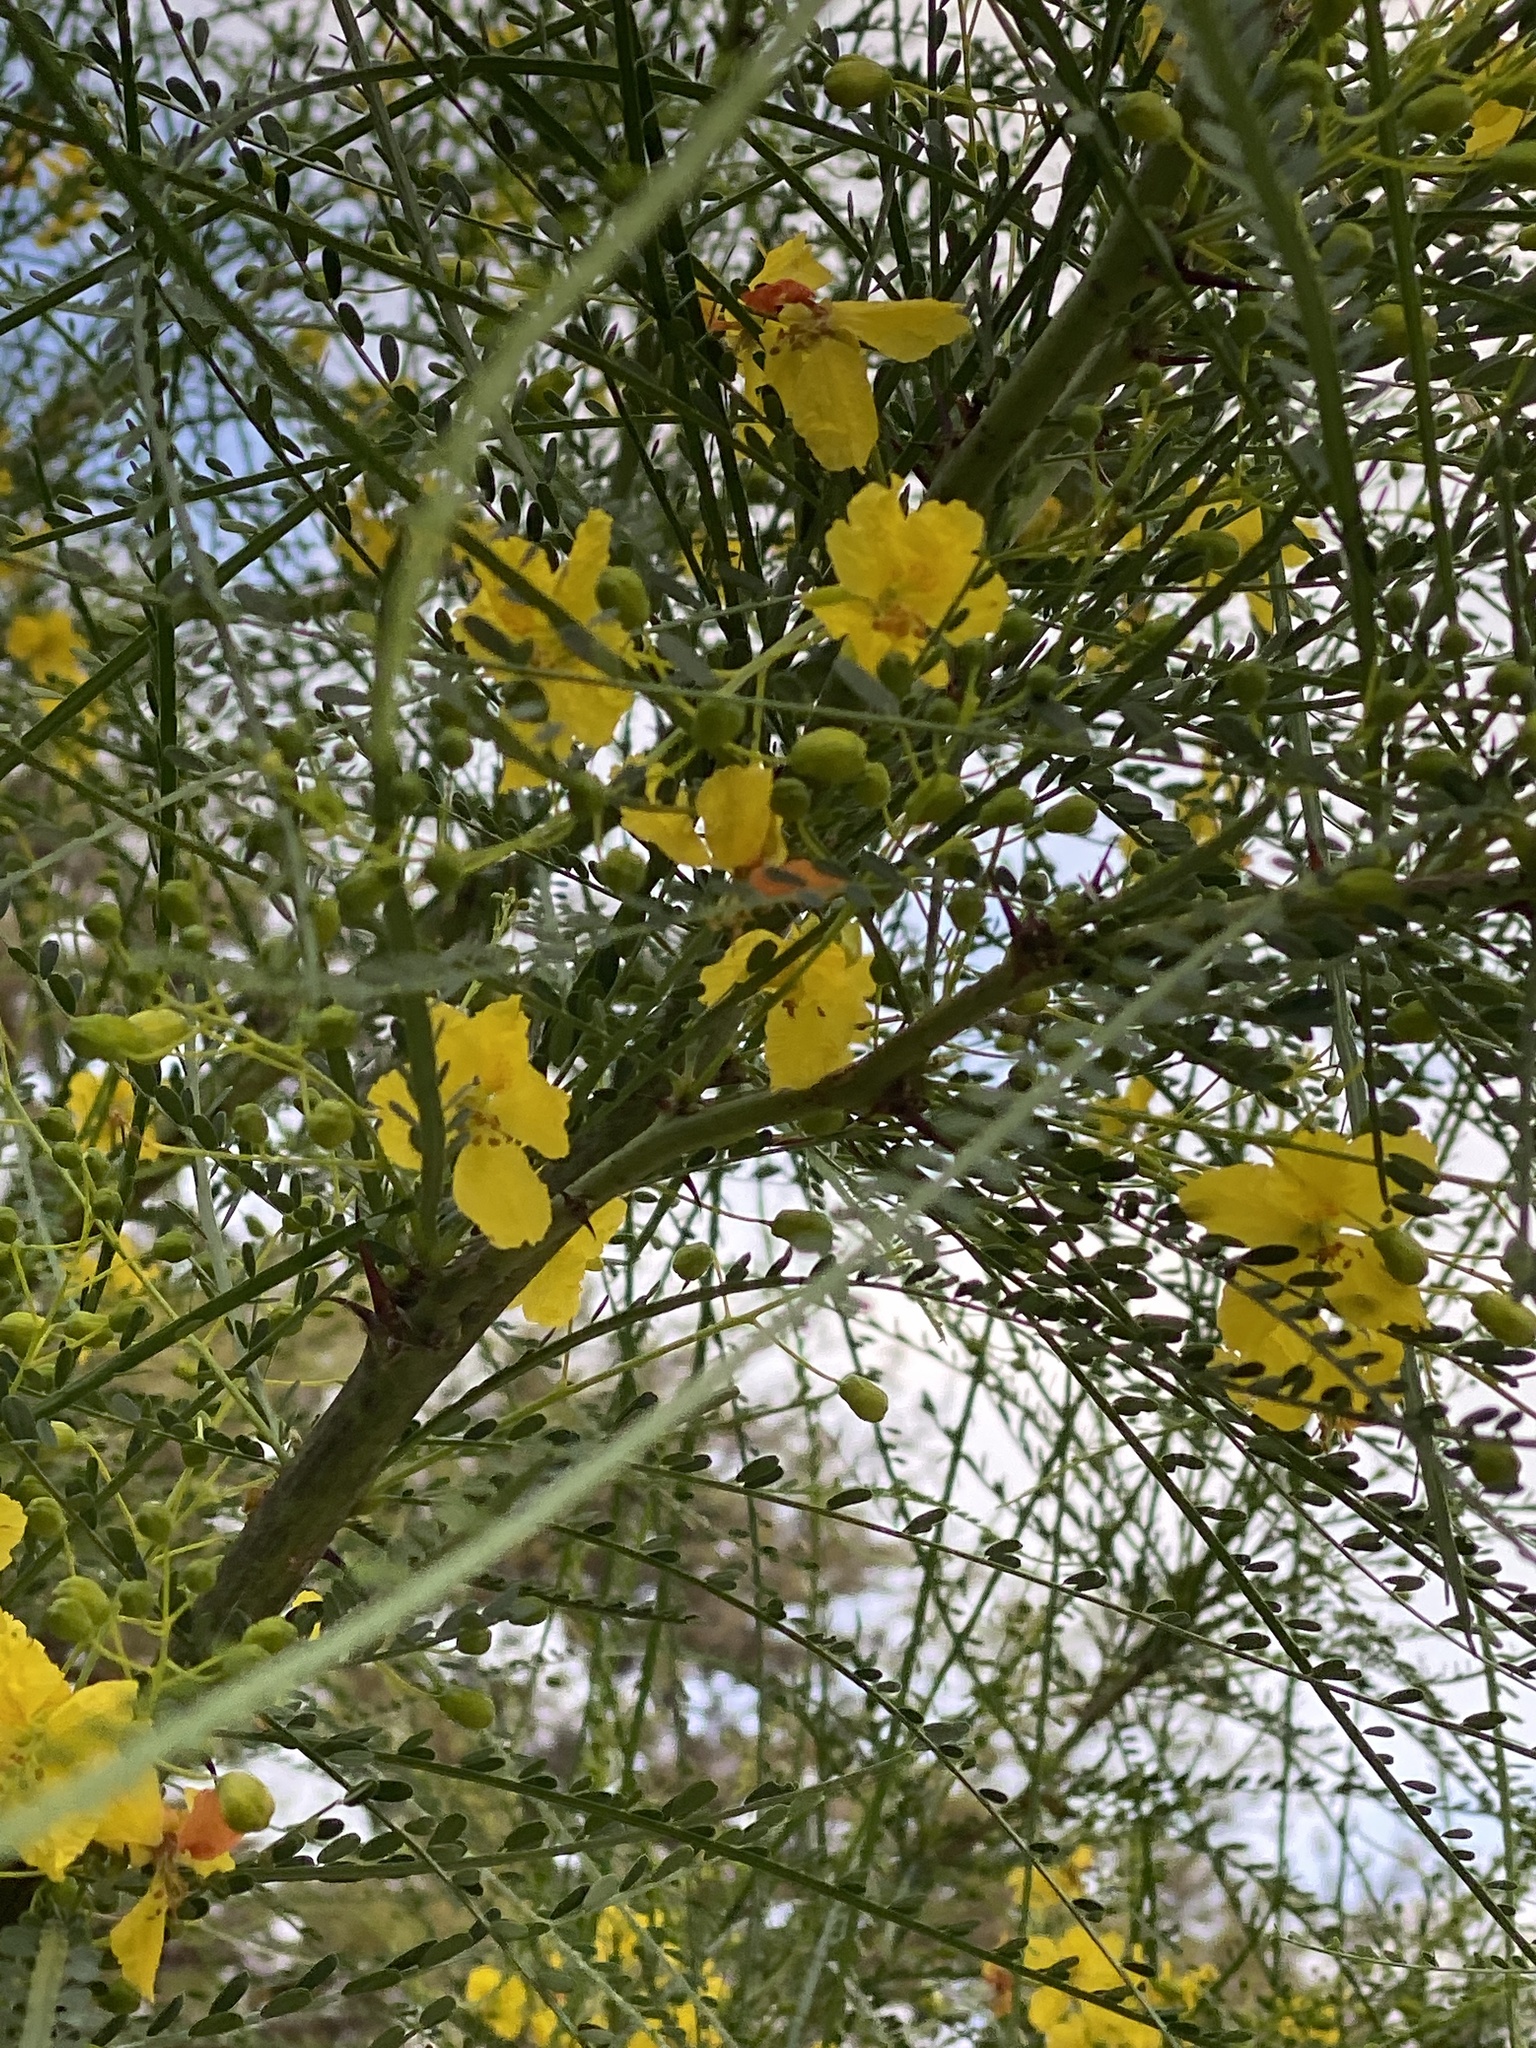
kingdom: Plantae
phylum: Tracheophyta
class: Magnoliopsida
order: Fabales
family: Fabaceae
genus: Parkinsonia
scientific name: Parkinsonia aculeata
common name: Jerusalem thorn
